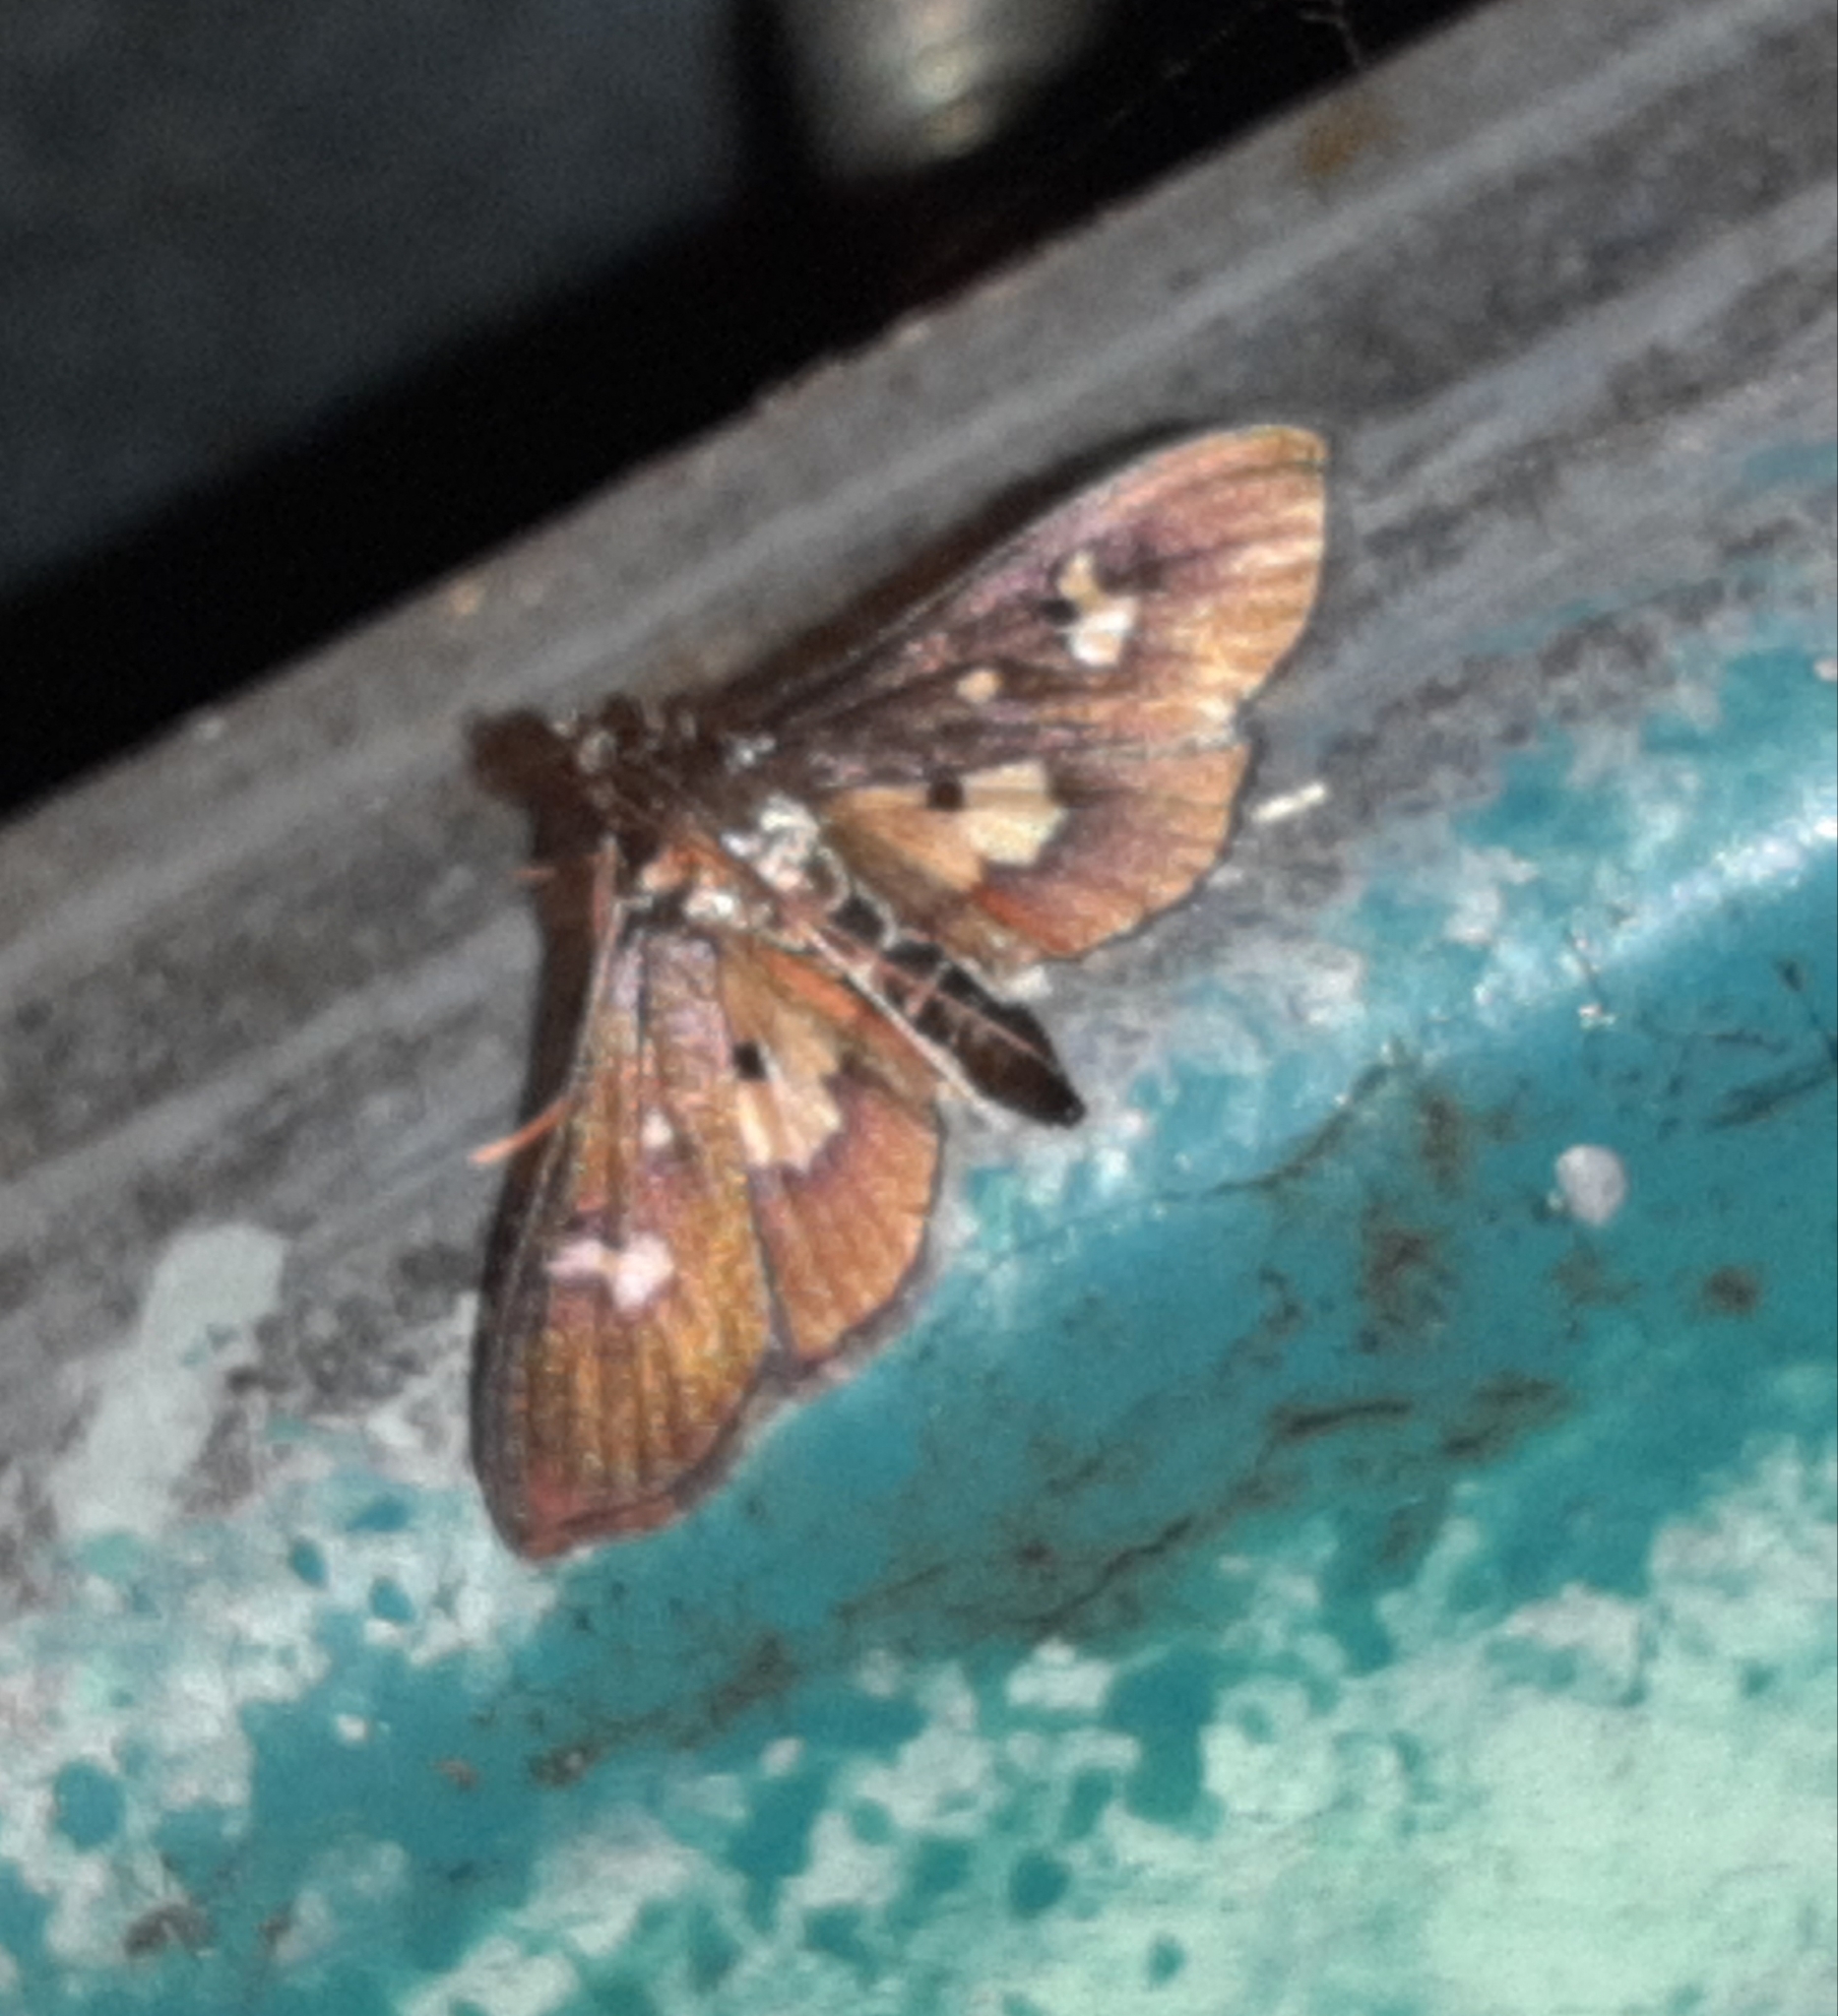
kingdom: Animalia
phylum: Arthropoda
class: Insecta
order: Lepidoptera
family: Crambidae
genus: Zenamorpha
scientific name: Zenamorpha discophoralis
